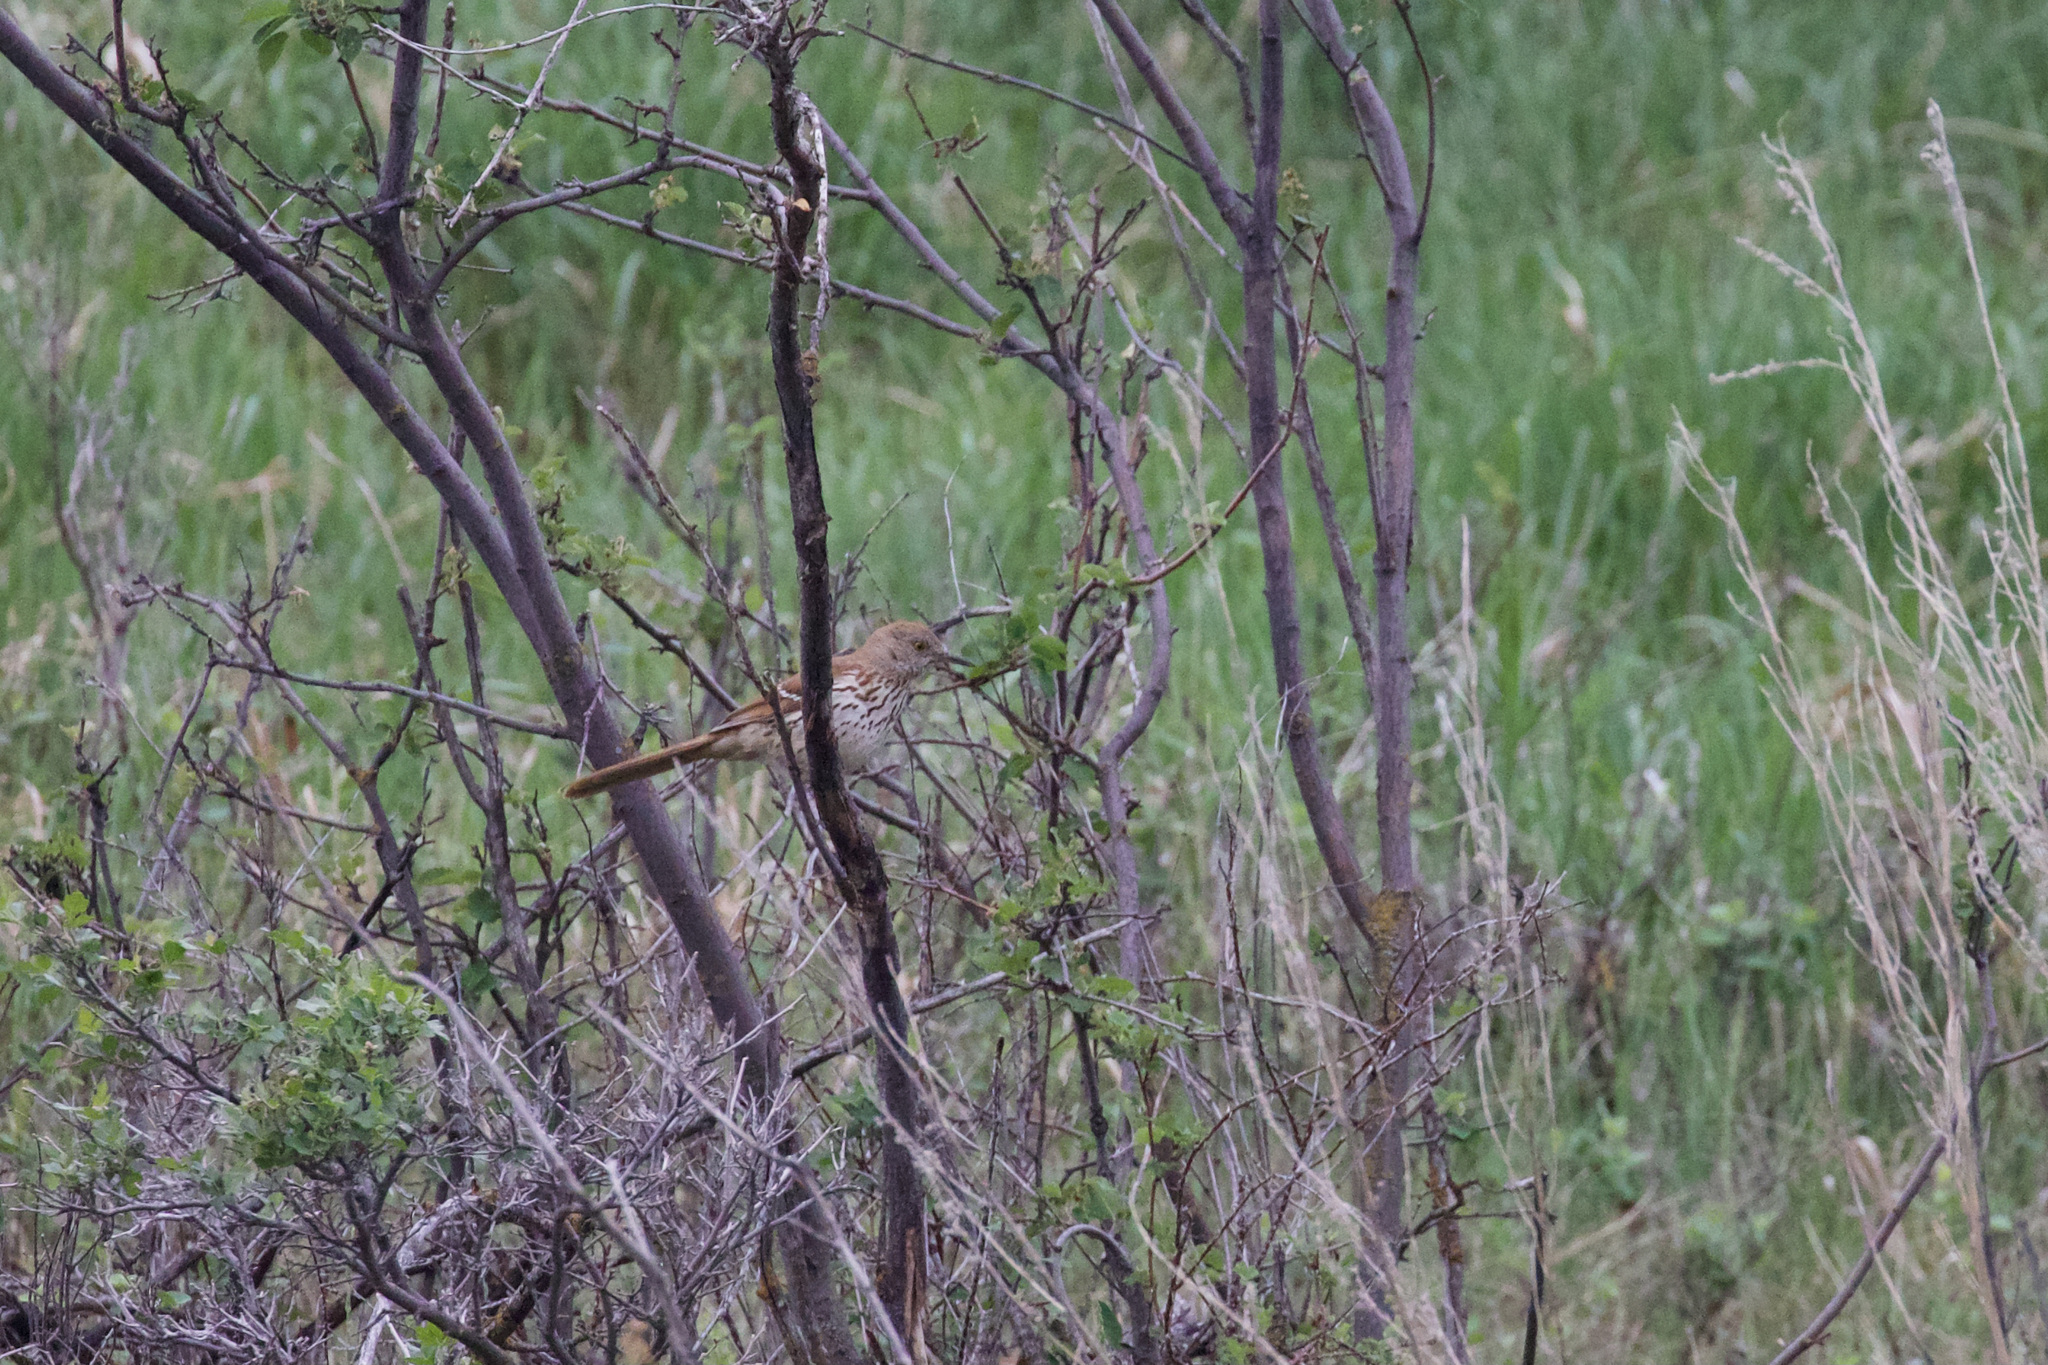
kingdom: Animalia
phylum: Chordata
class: Aves
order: Passeriformes
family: Mimidae
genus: Toxostoma
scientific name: Toxostoma rufum
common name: Brown thrasher
